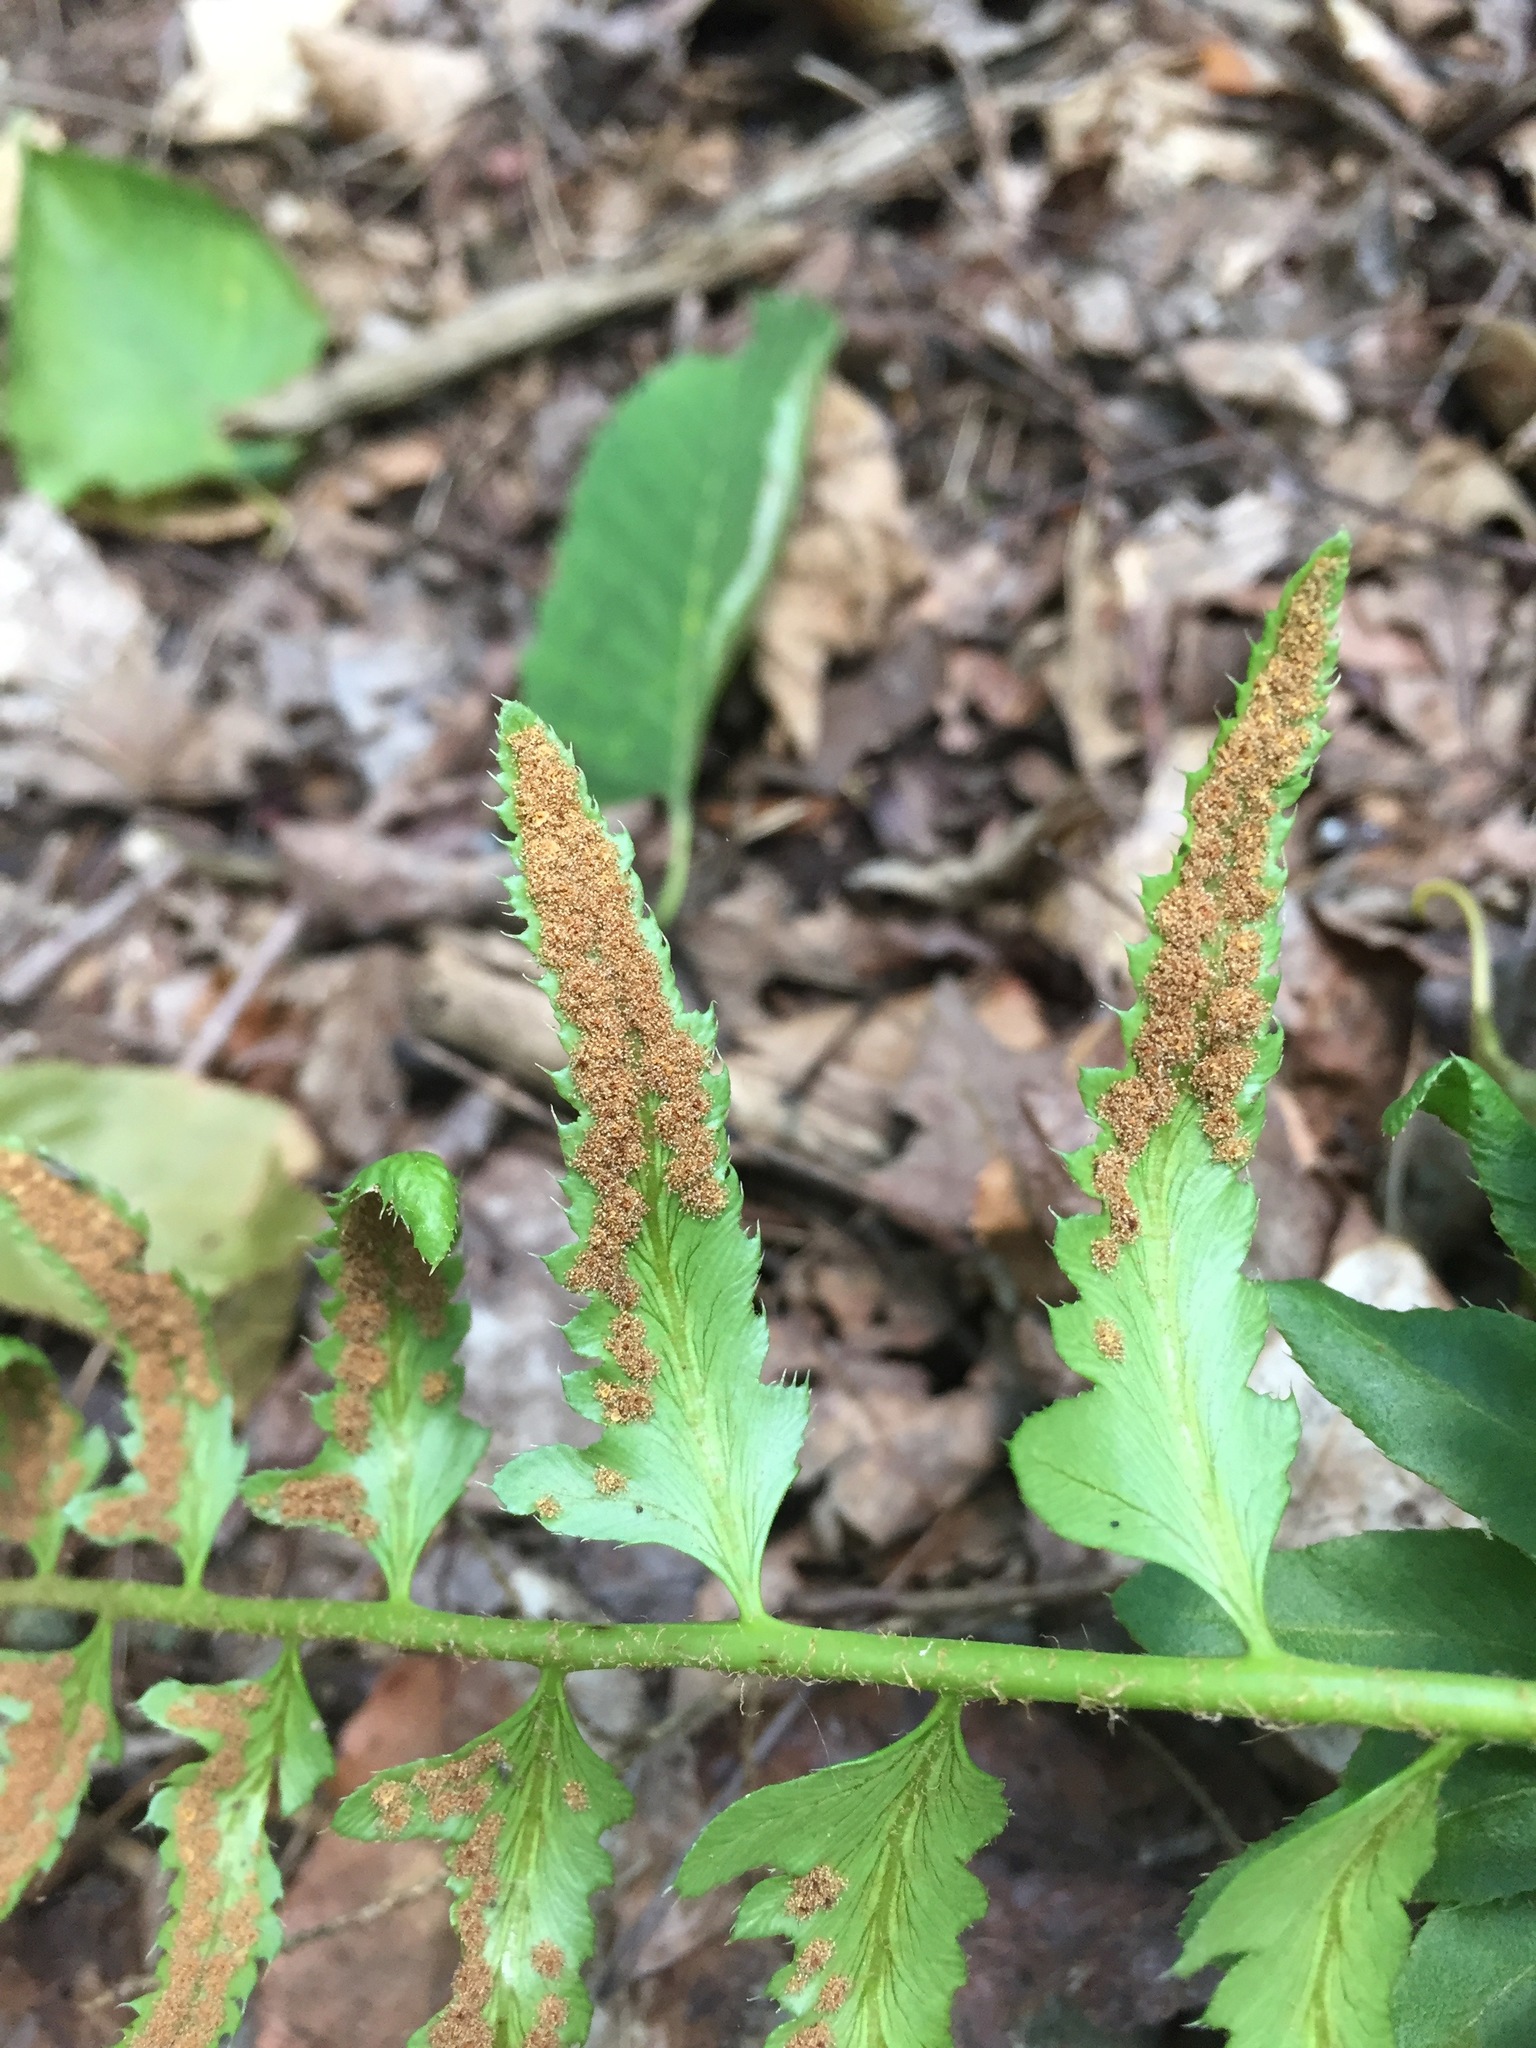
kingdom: Plantae
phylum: Tracheophyta
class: Polypodiopsida
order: Polypodiales
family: Dryopteridaceae
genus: Polystichum
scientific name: Polystichum acrostichoides
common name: Christmas fern
